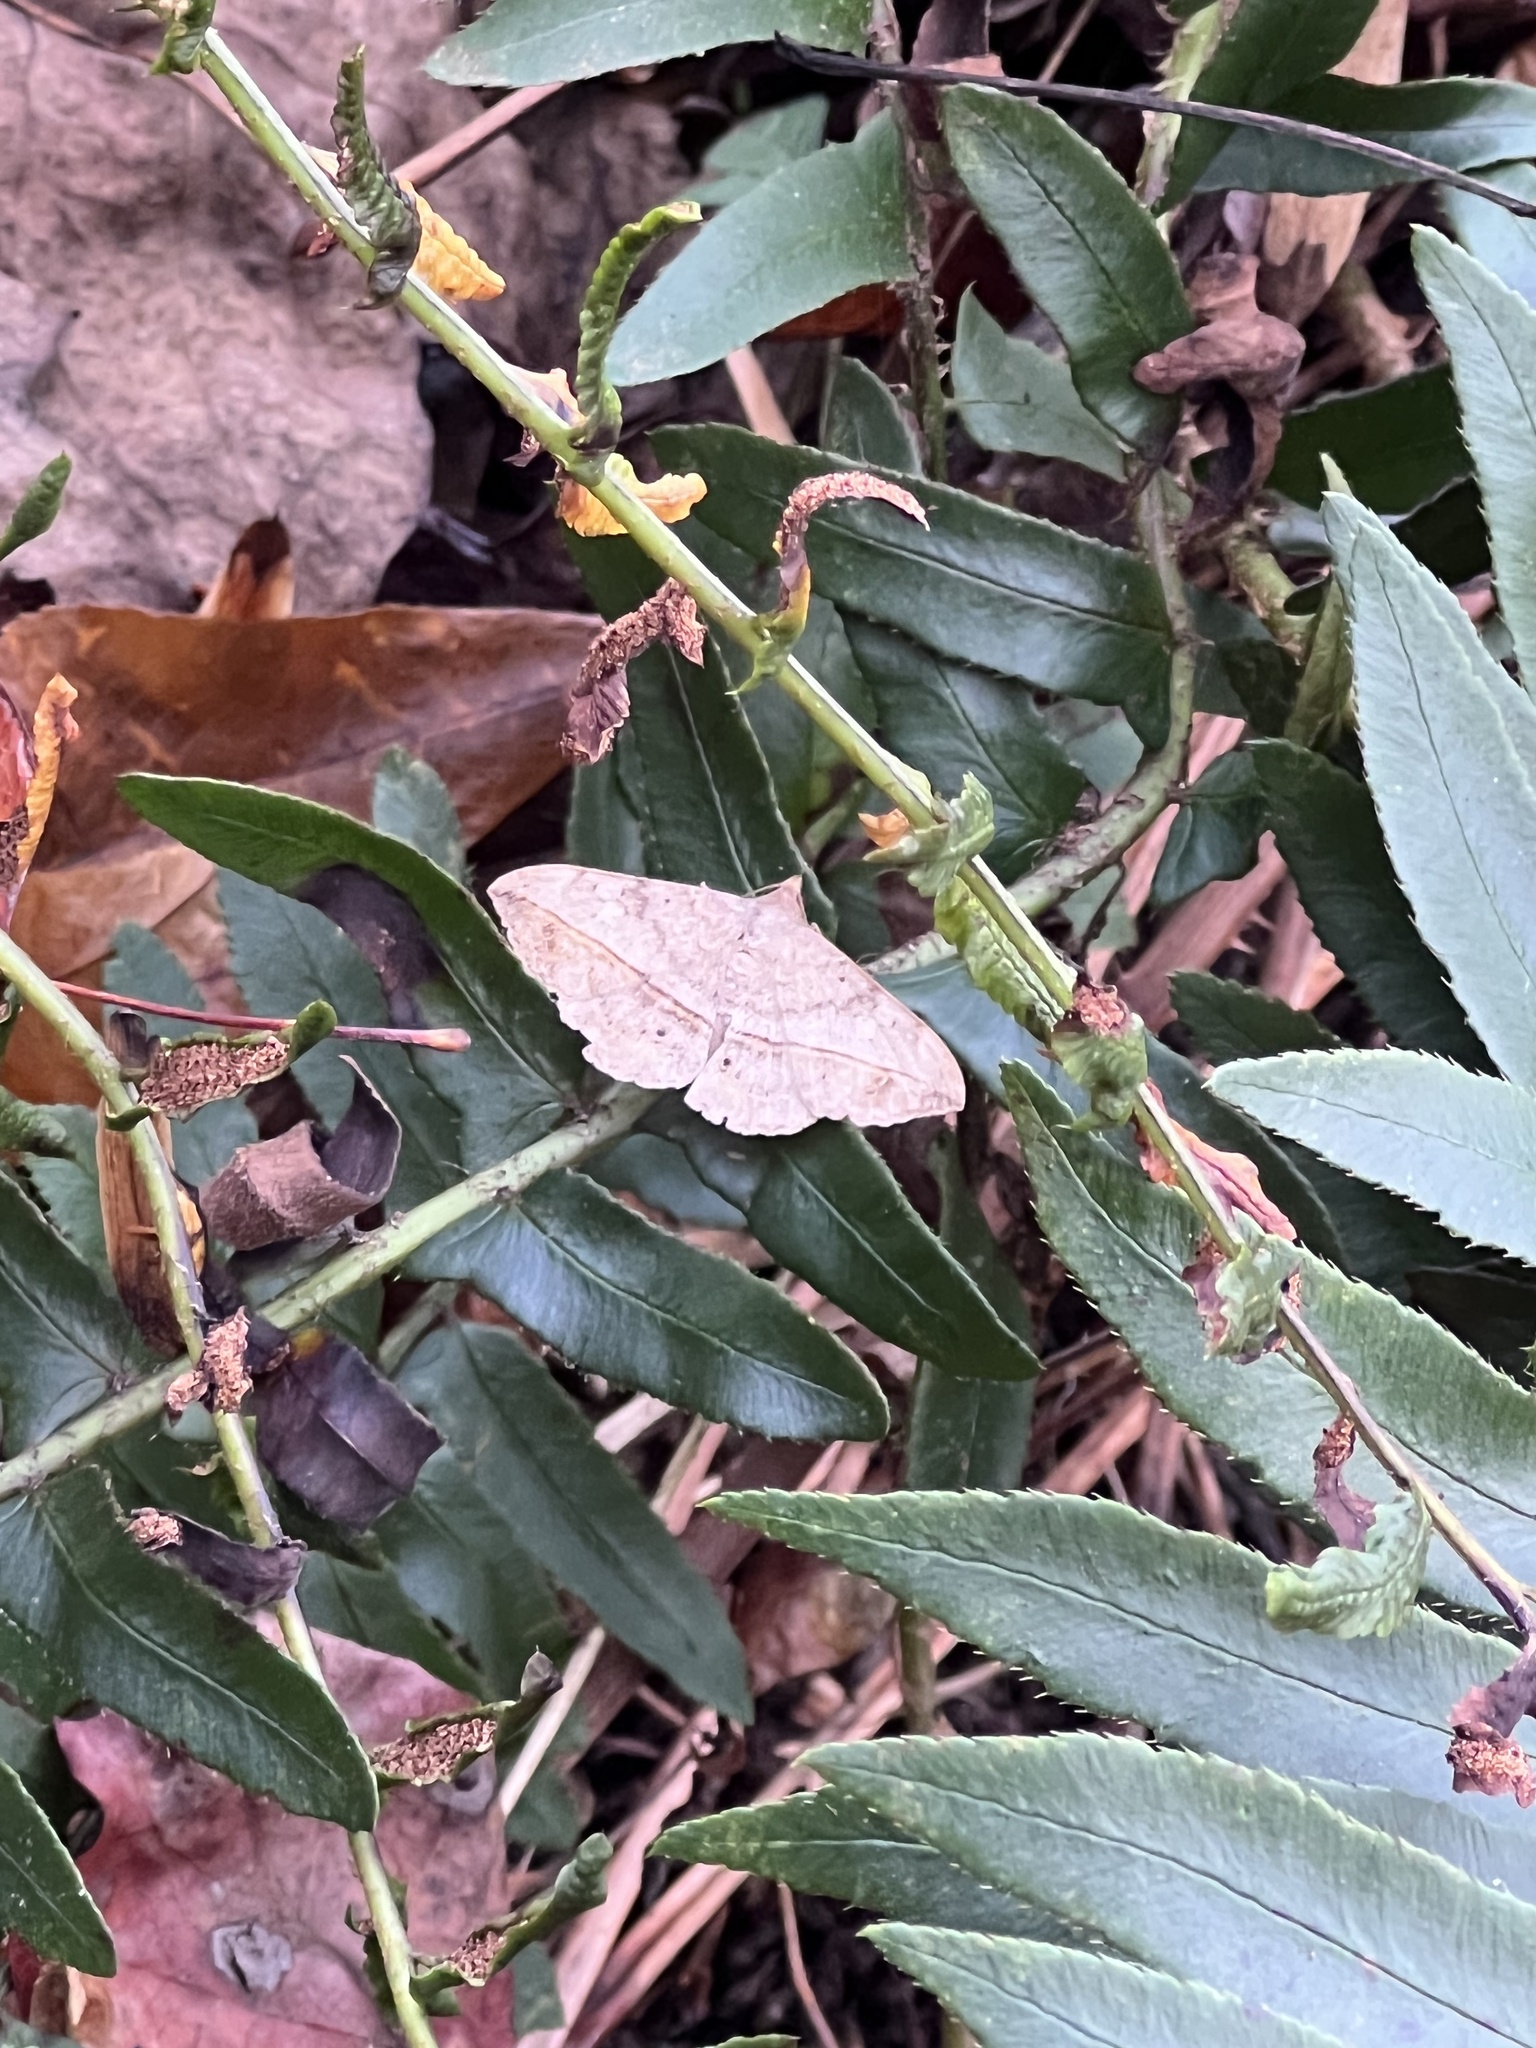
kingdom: Animalia
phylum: Arthropoda
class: Insecta
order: Lepidoptera
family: Erebidae
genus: Anticarsia
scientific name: Anticarsia gemmatalis
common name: Cutworm moth
